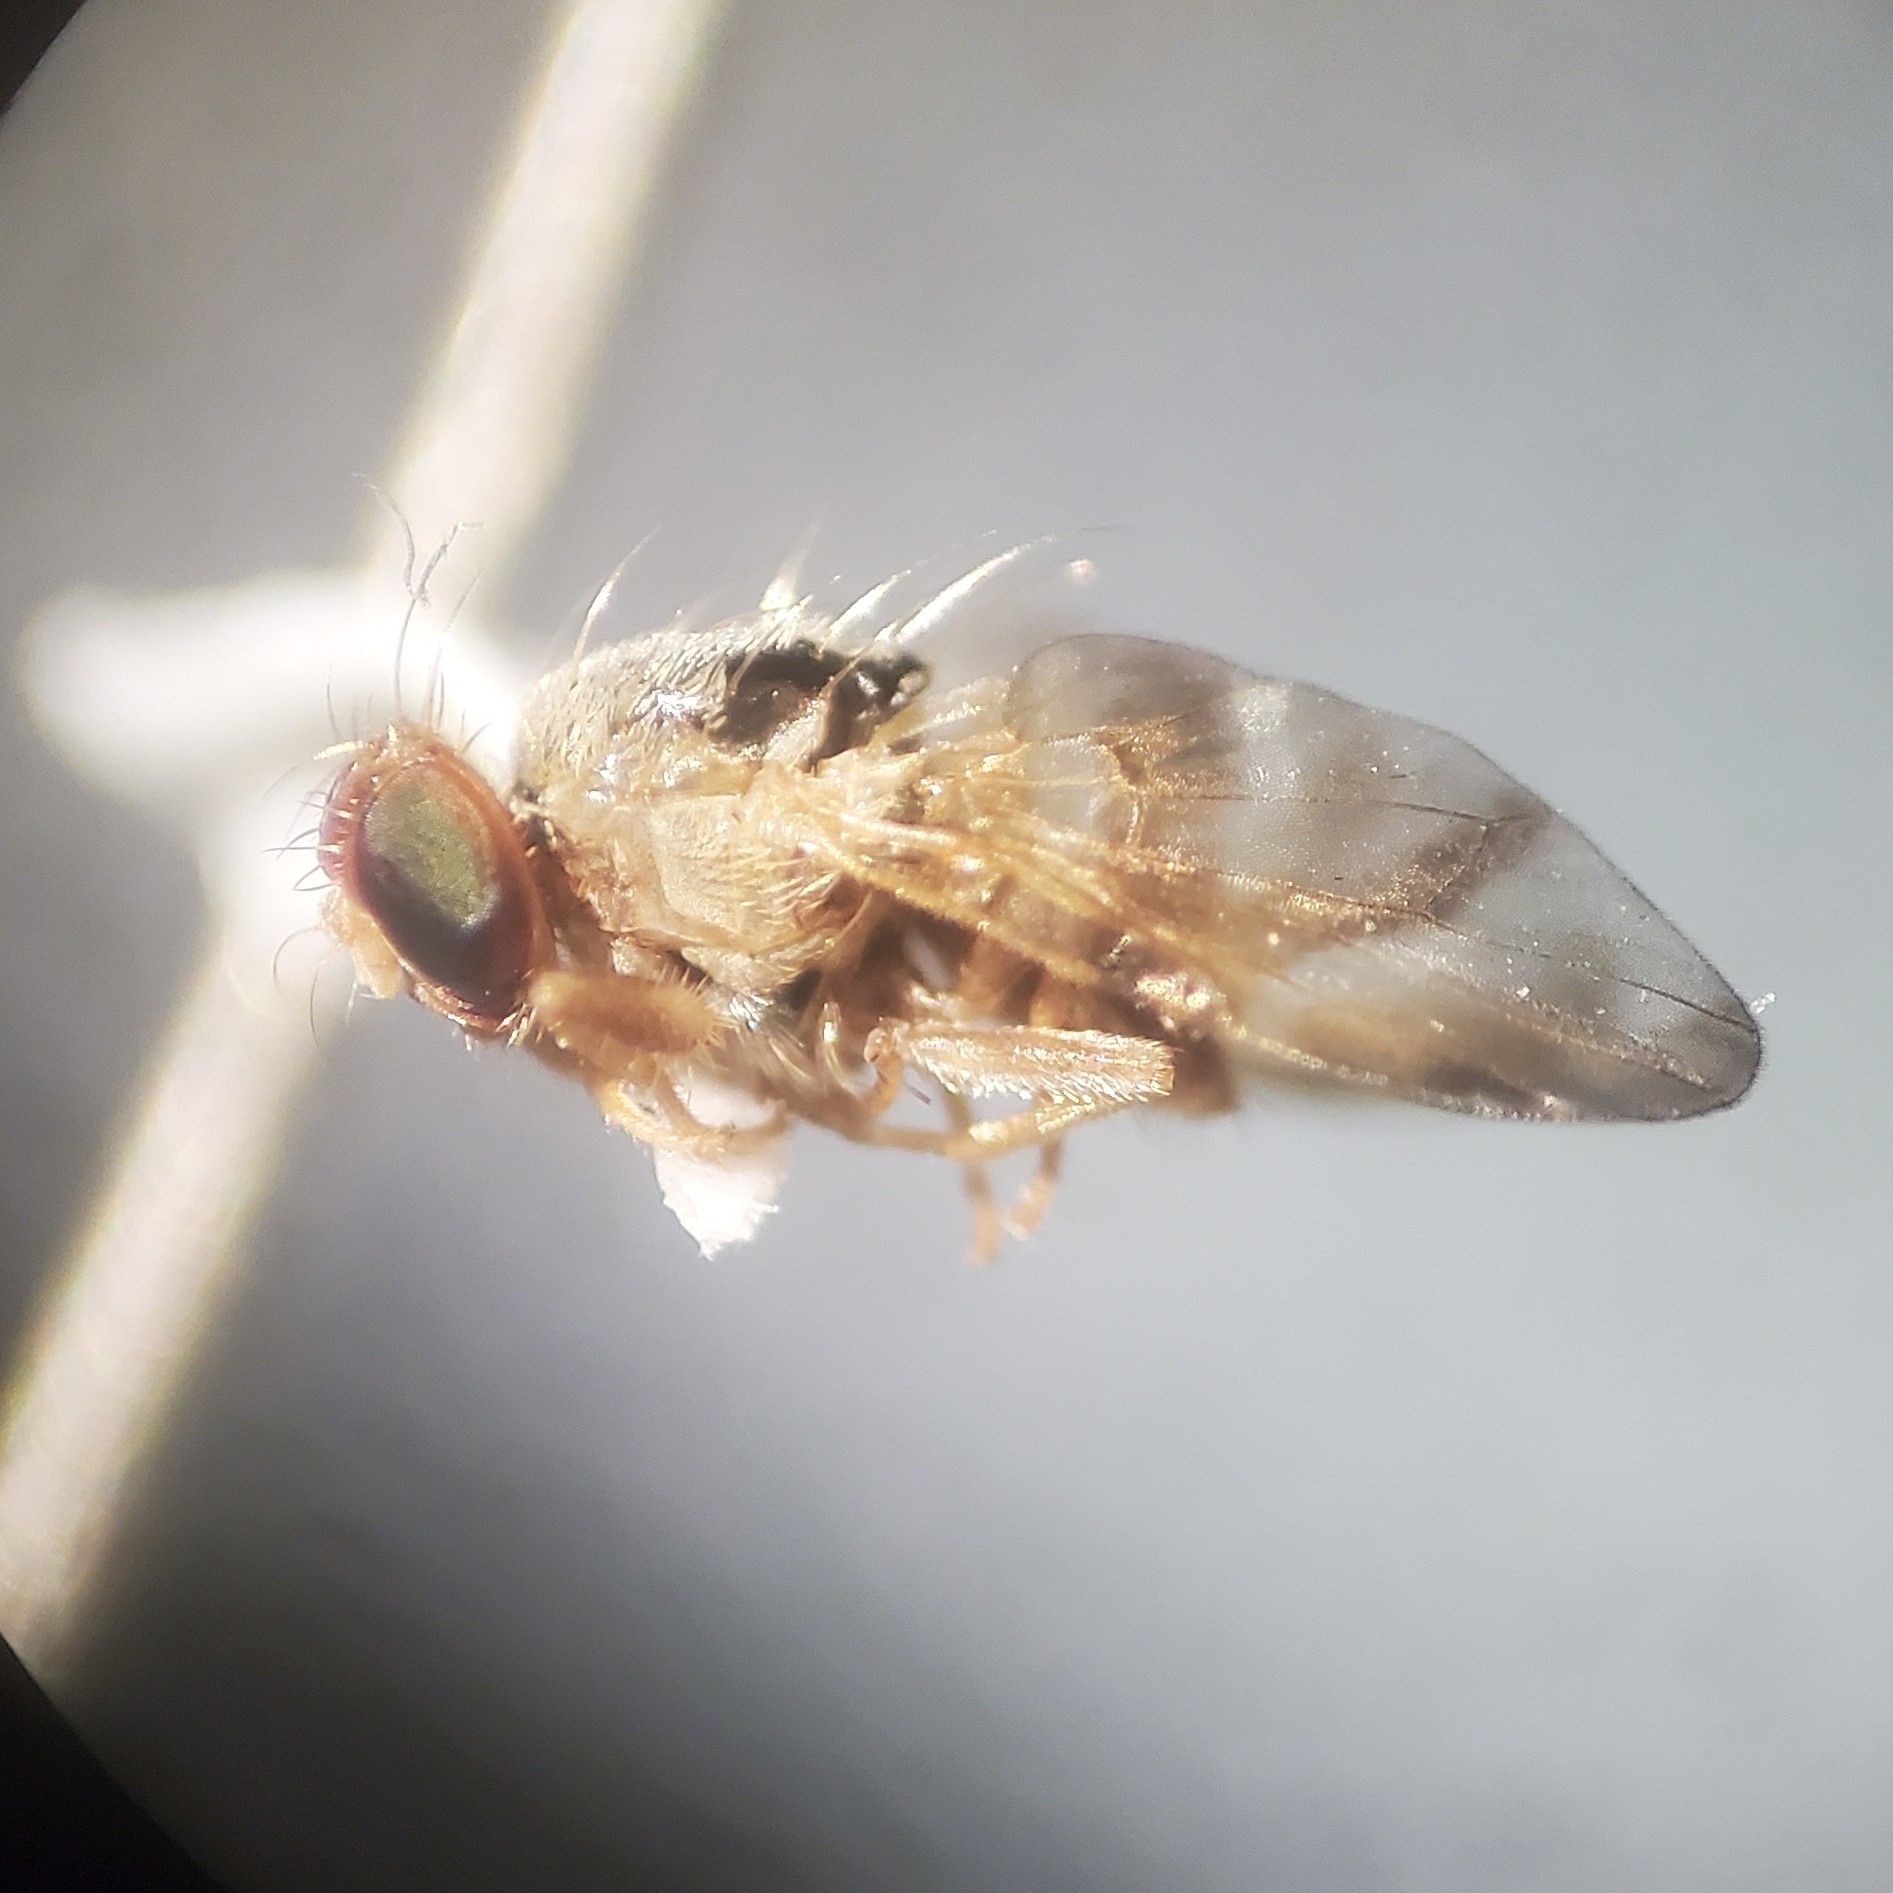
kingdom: Animalia
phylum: Arthropoda
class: Insecta
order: Diptera
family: Tephritidae
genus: Procecidocharoides
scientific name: Procecidocharoides penelope
